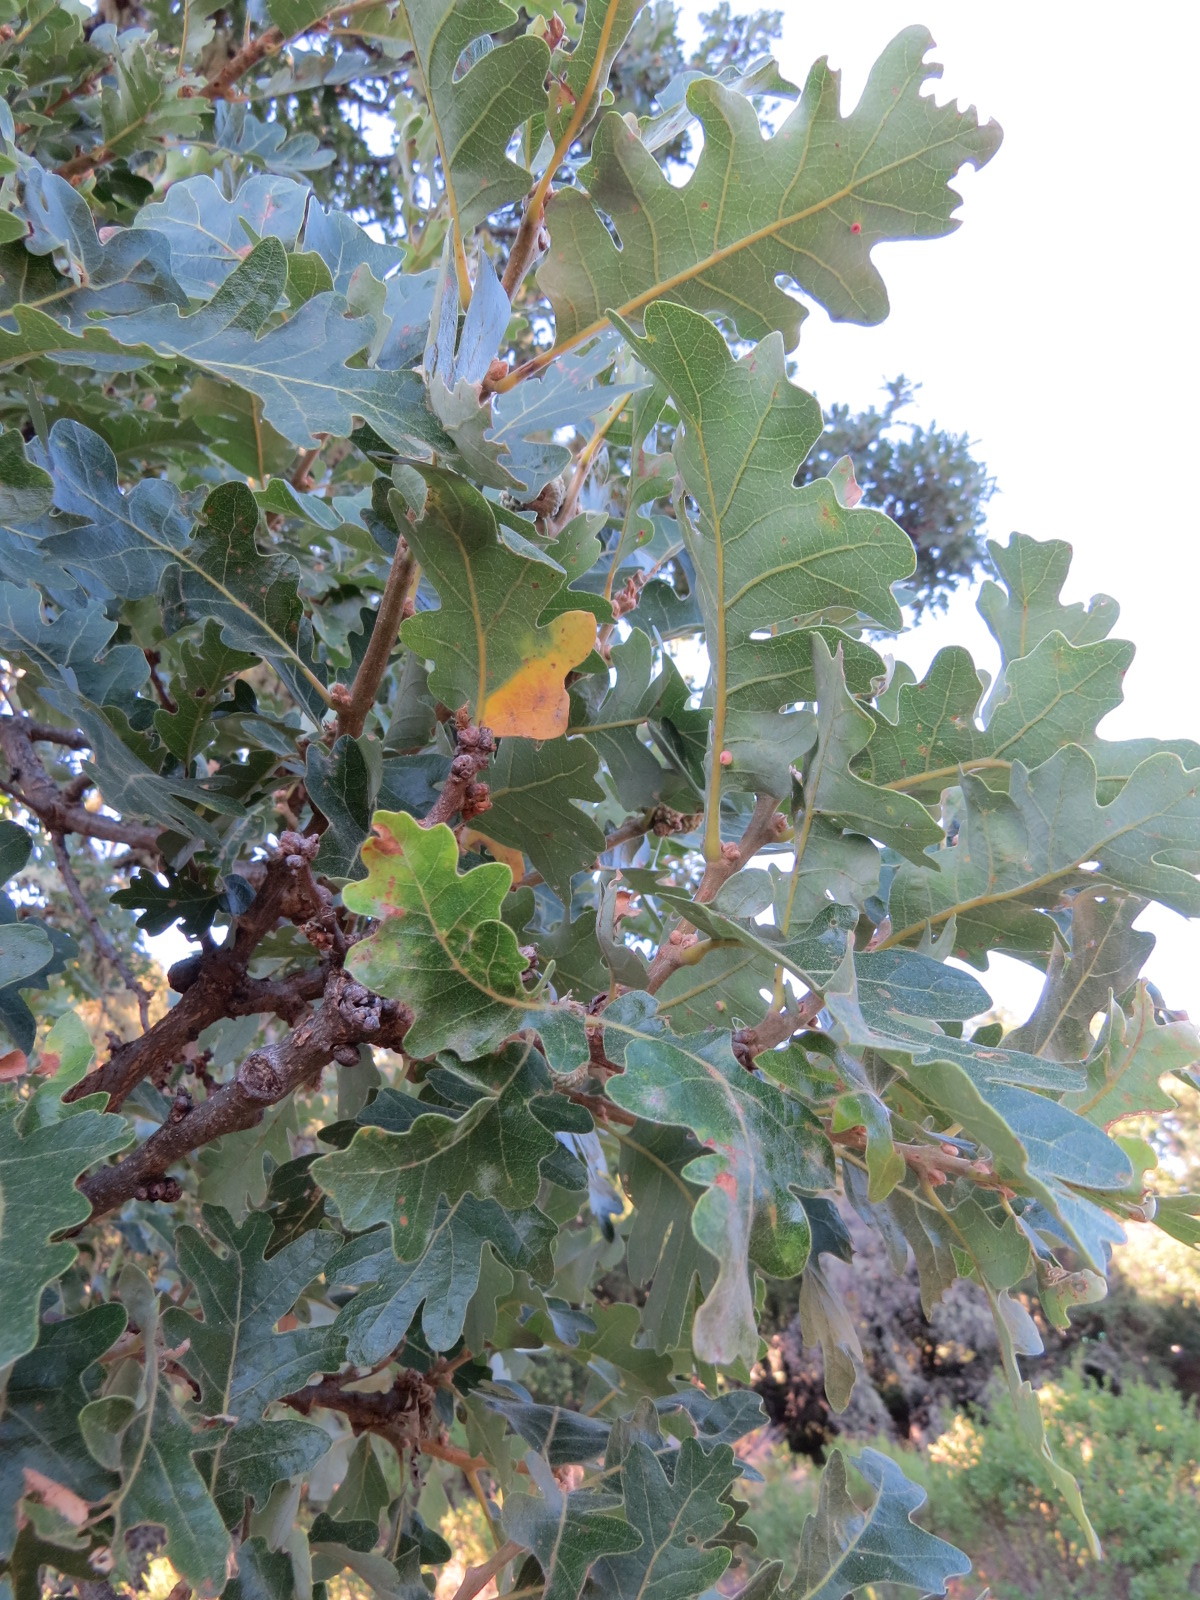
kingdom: Animalia
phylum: Arthropoda
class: Insecta
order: Hymenoptera
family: Cynipidae
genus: Andricus
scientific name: Andricus
